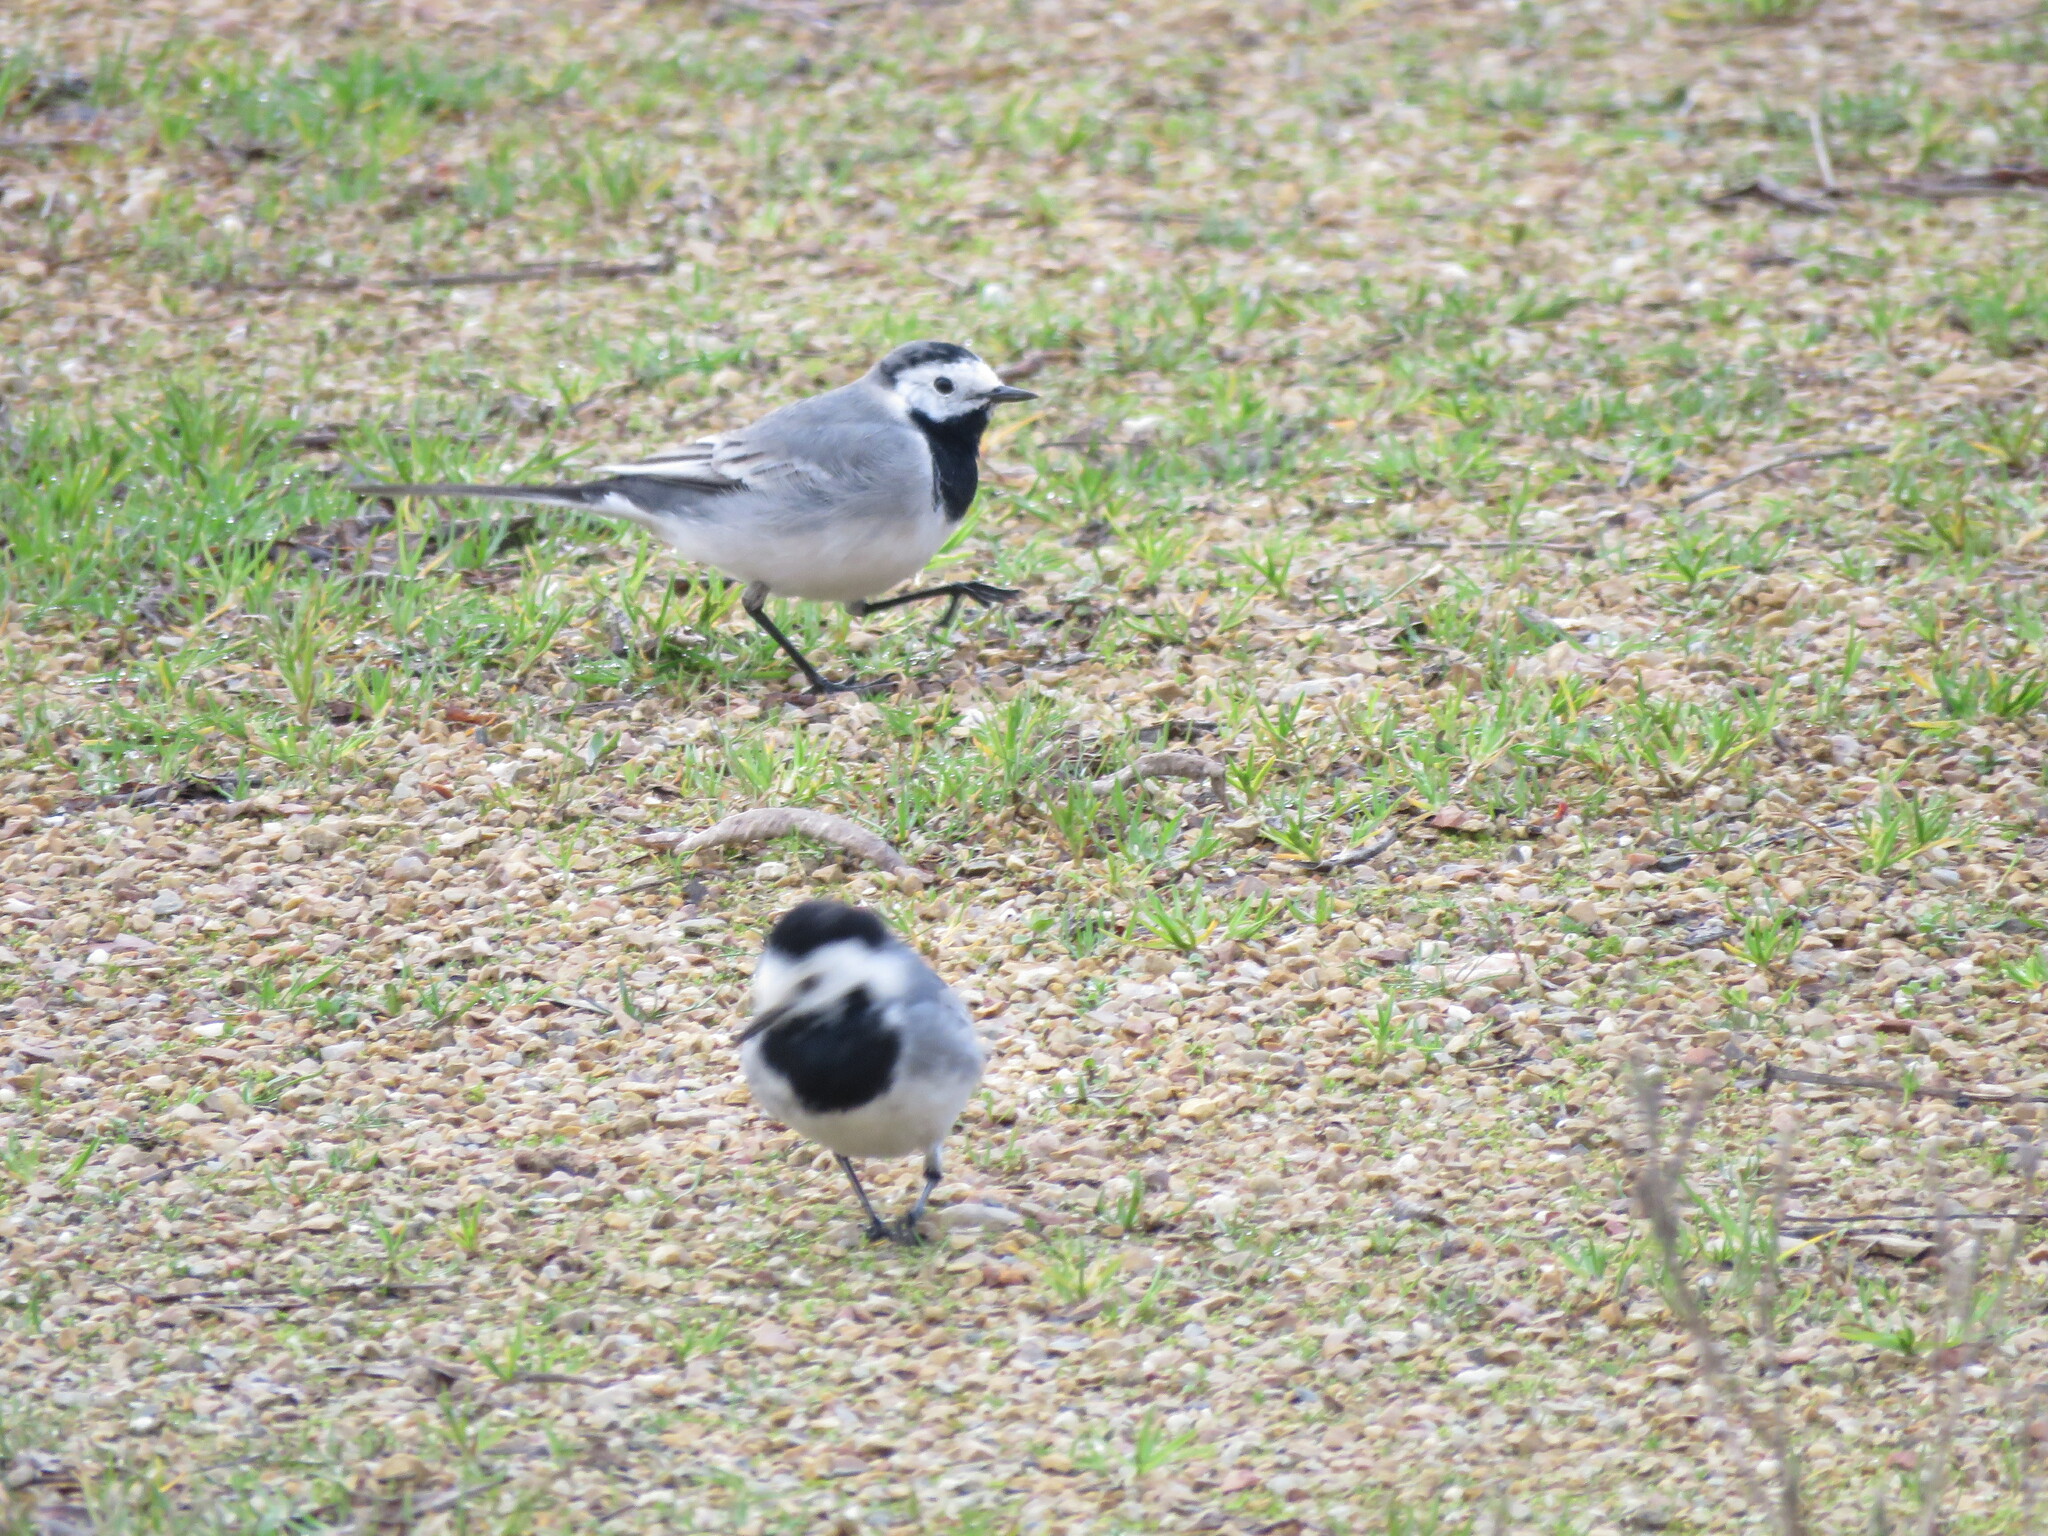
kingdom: Animalia
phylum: Chordata
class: Aves
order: Passeriformes
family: Motacillidae
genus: Motacilla
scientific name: Motacilla alba
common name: White wagtail
